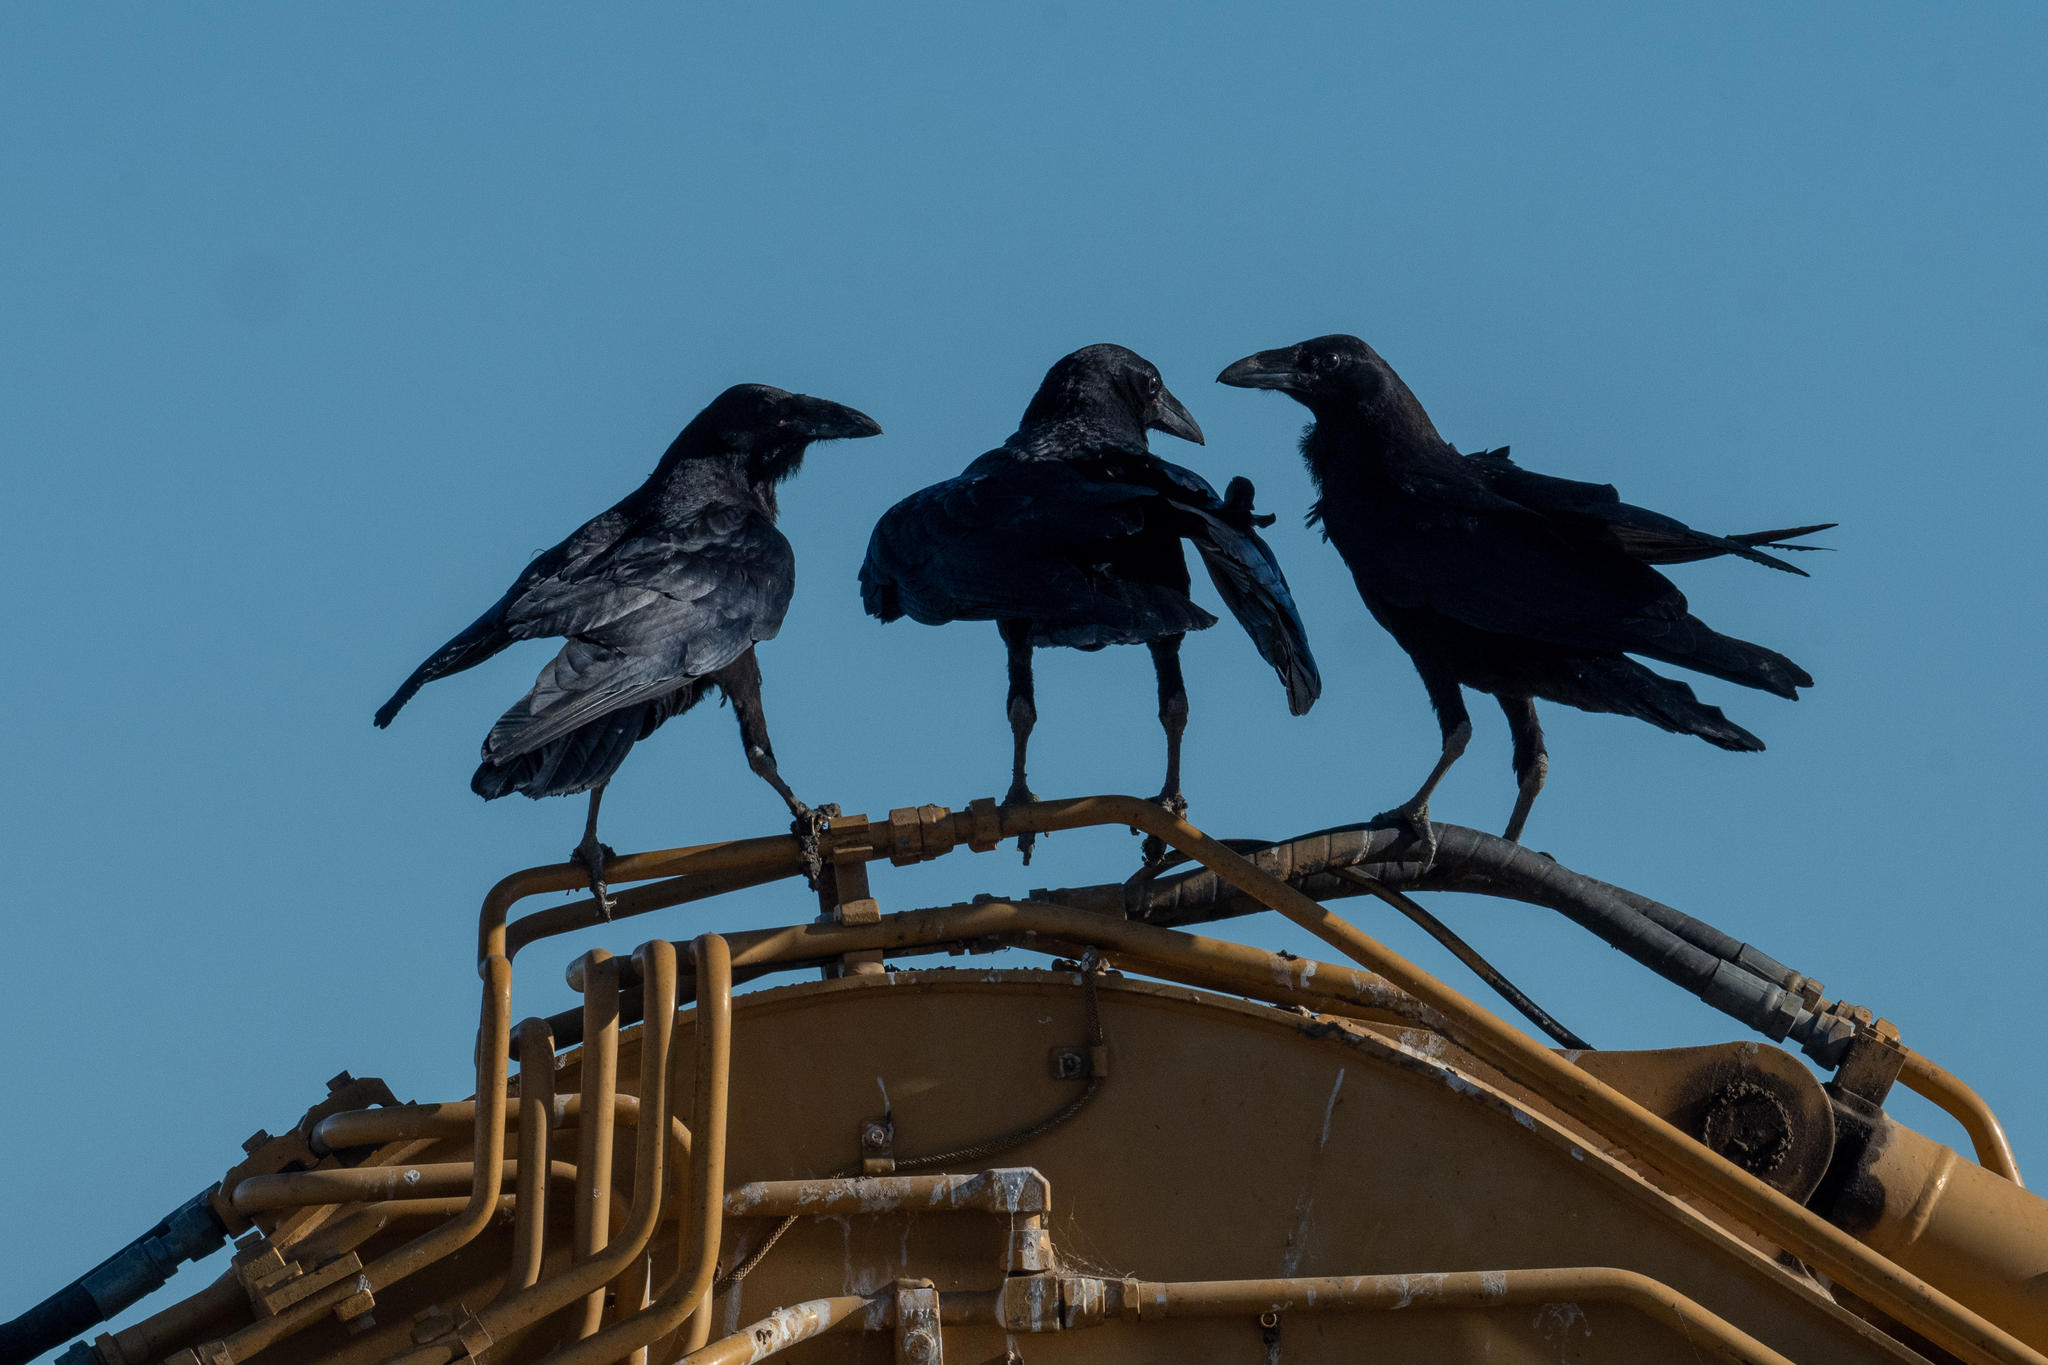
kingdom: Animalia
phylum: Chordata
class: Aves
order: Passeriformes
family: Corvidae
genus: Corvus
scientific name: Corvus corax
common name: Common raven
